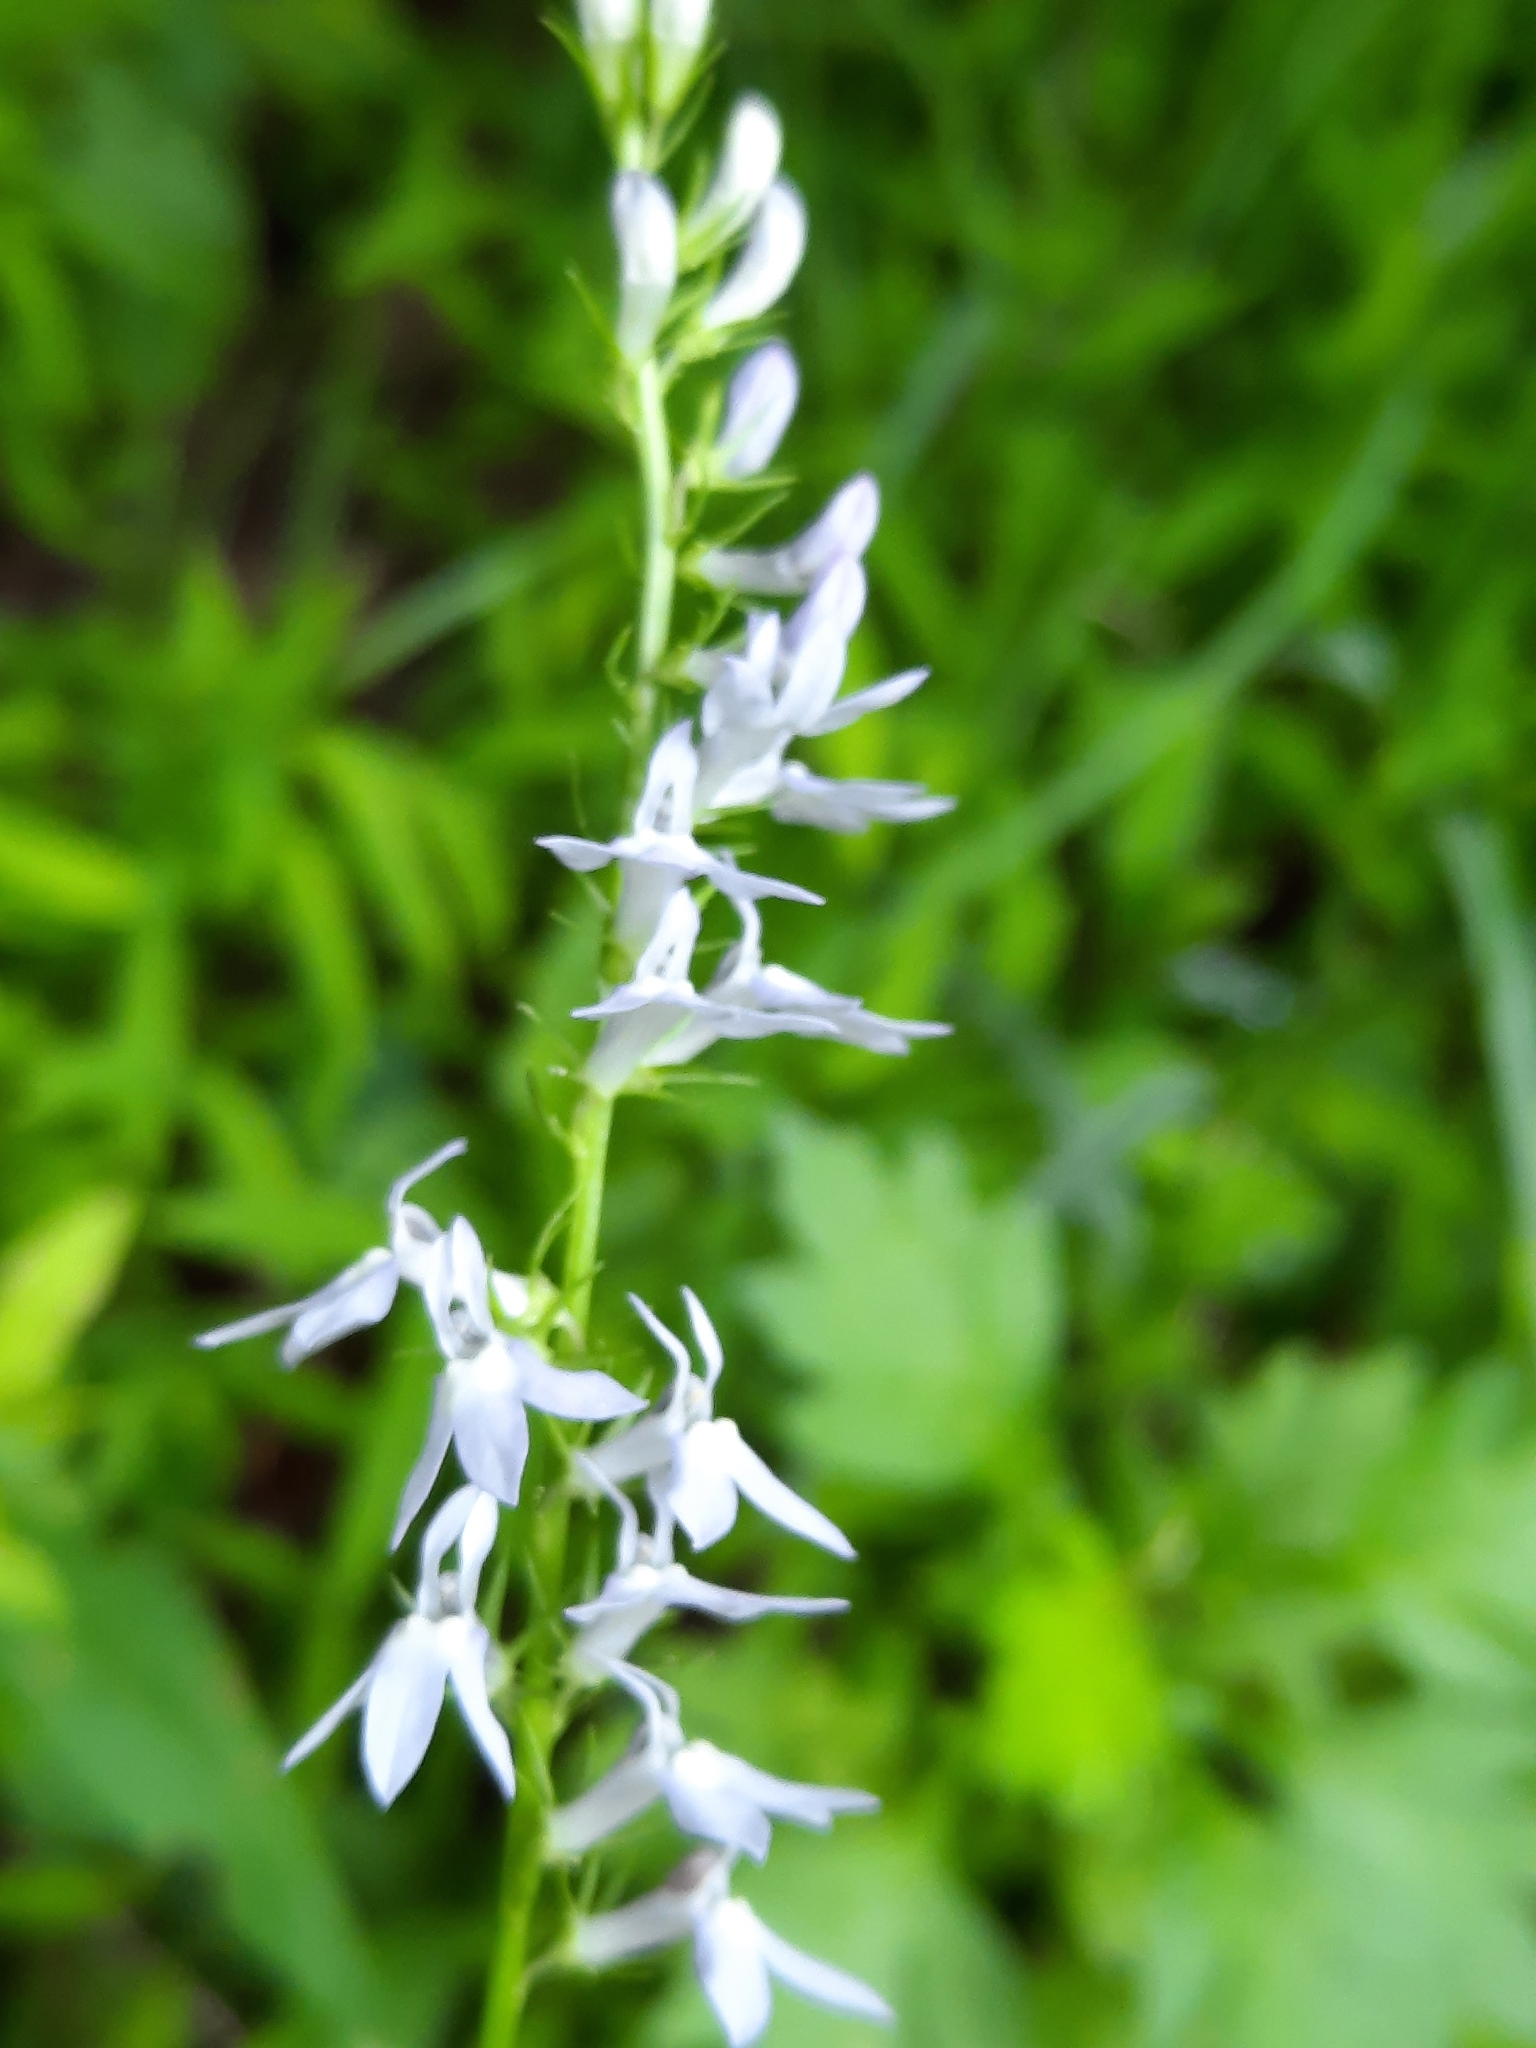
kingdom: Plantae
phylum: Tracheophyta
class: Magnoliopsida
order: Asterales
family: Campanulaceae
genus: Lobelia
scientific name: Lobelia spicata
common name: Pale-spike lobelia
